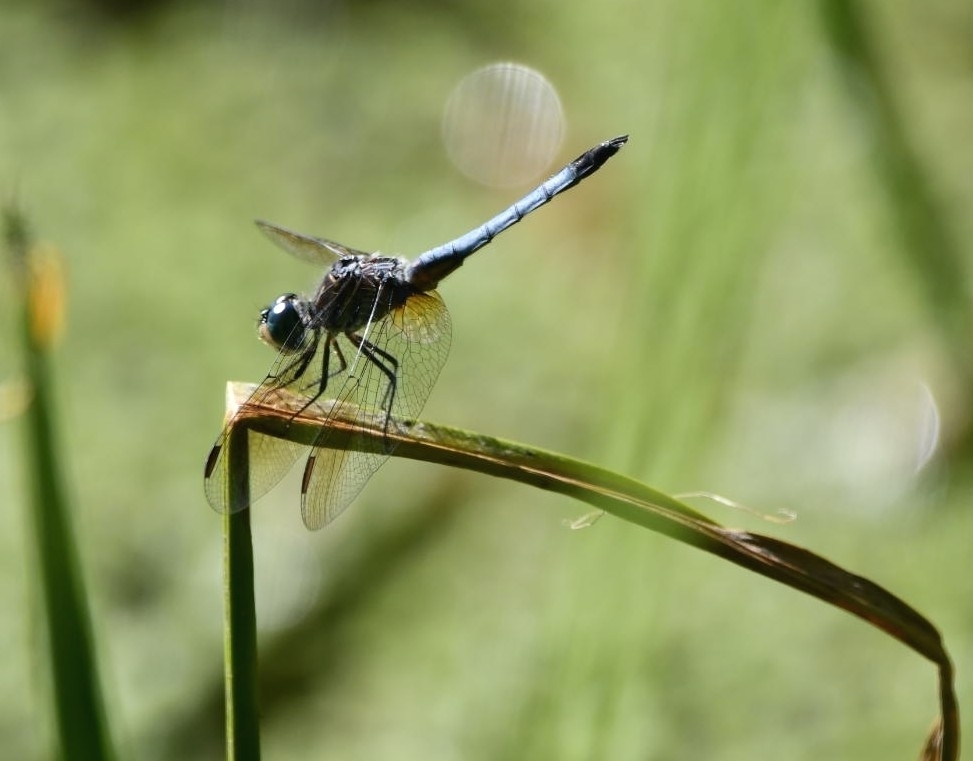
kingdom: Animalia
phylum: Arthropoda
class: Insecta
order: Odonata
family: Libellulidae
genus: Pachydiplax
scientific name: Pachydiplax longipennis
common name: Blue dasher
